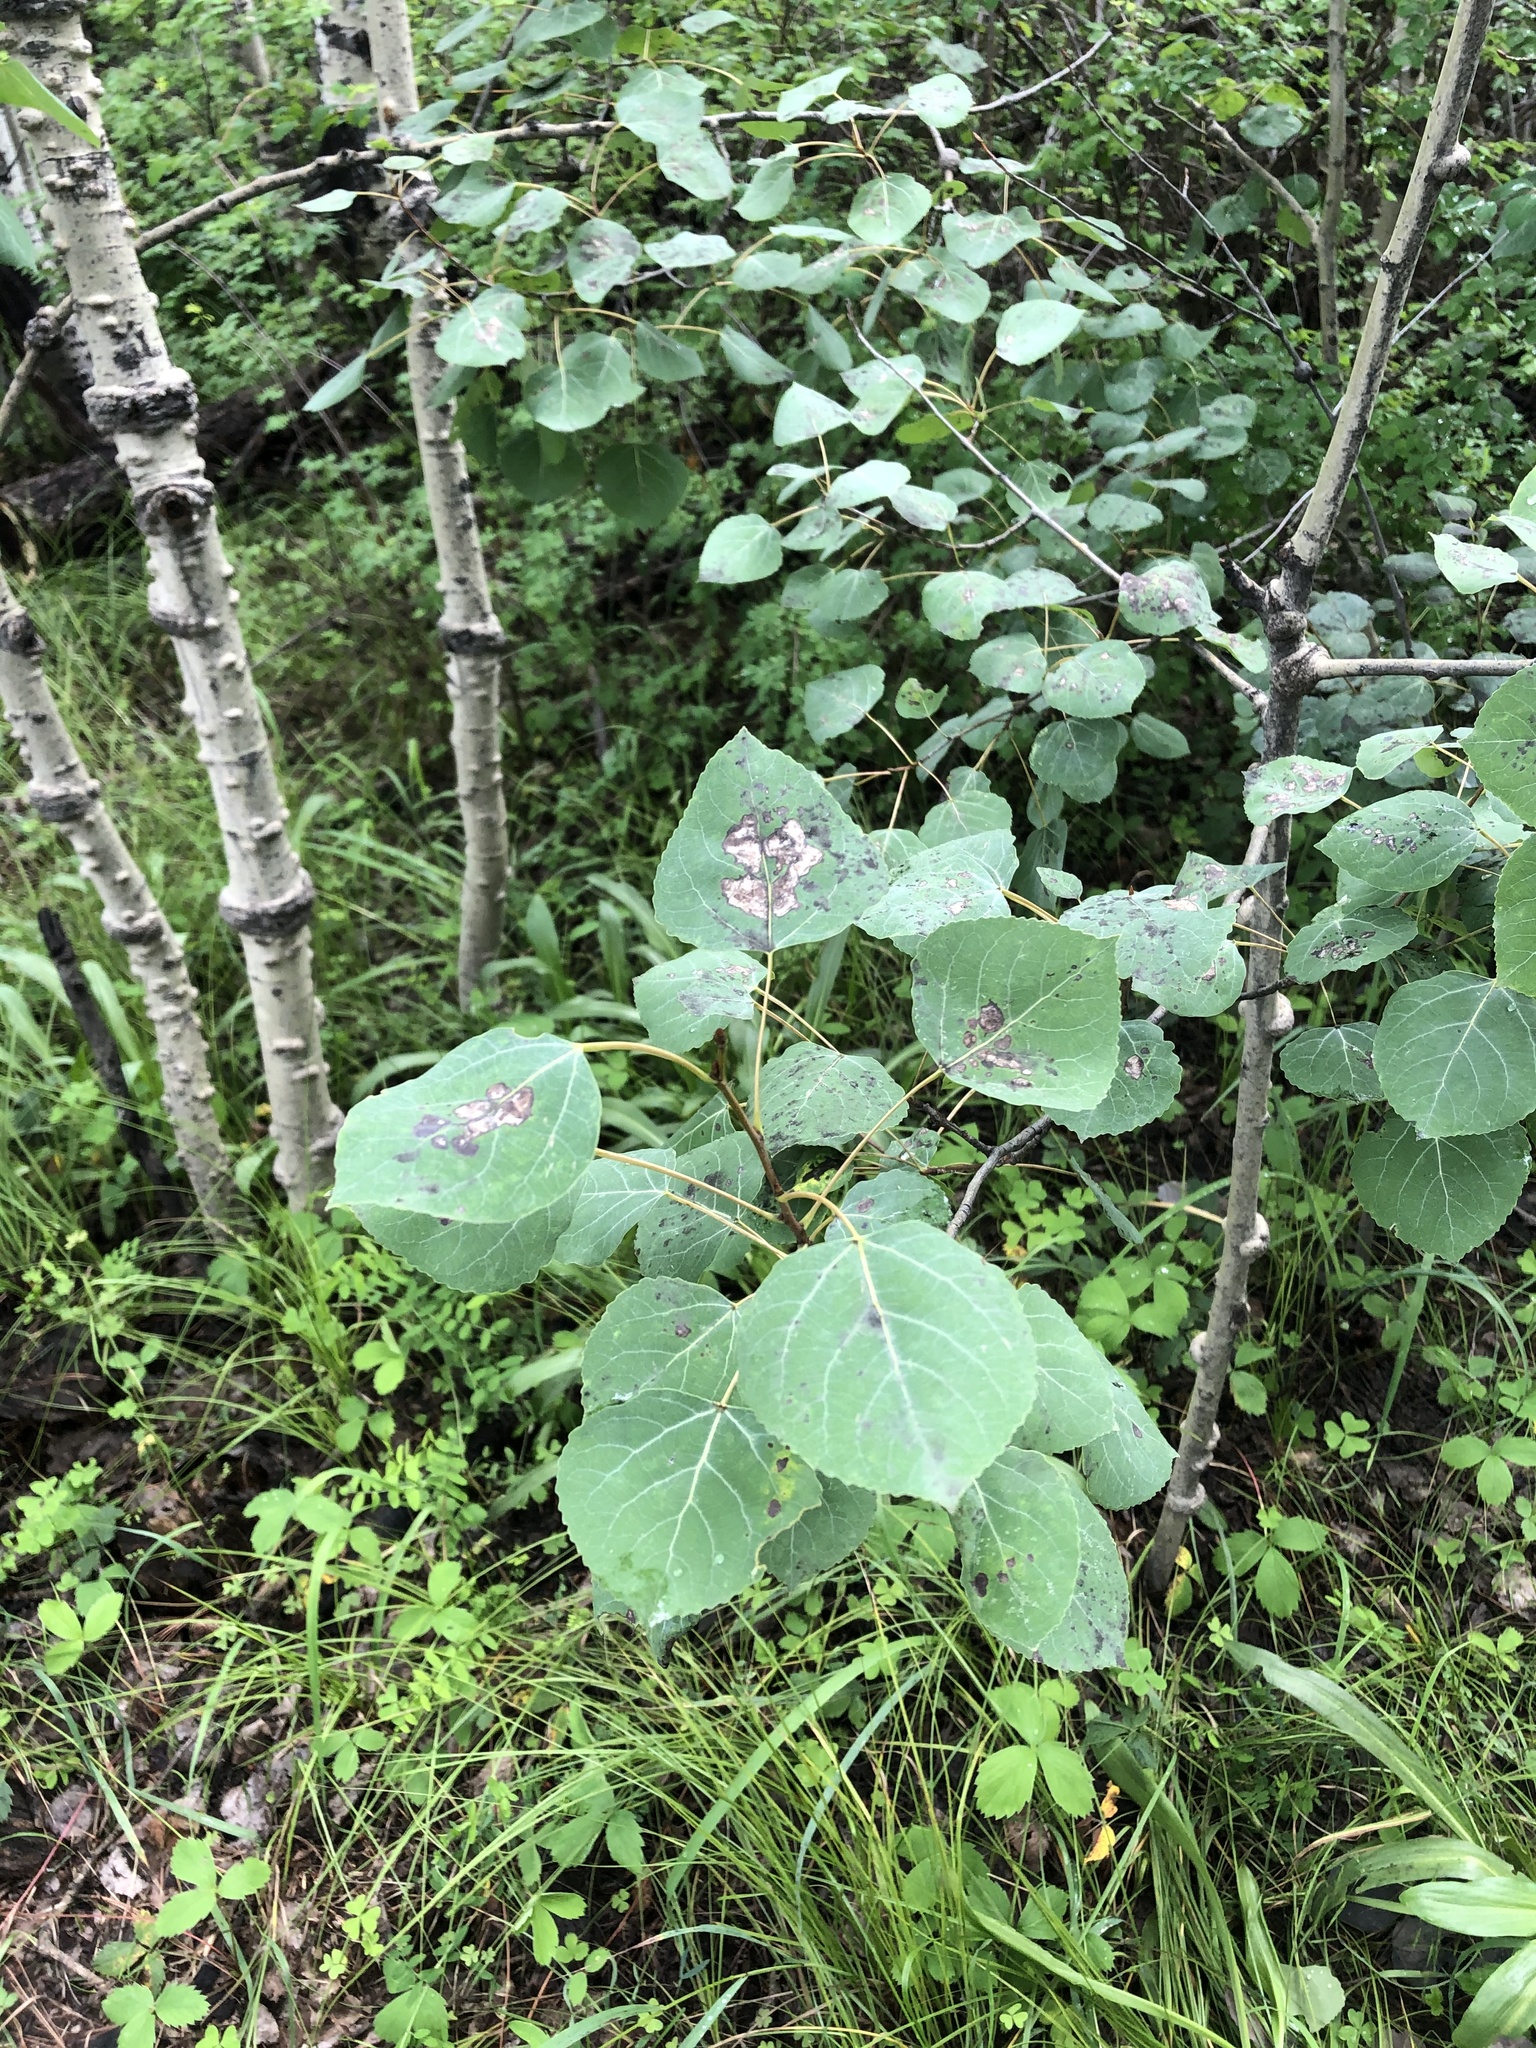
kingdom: Plantae
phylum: Tracheophyta
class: Magnoliopsida
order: Malpighiales
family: Salicaceae
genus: Populus
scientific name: Populus tremuloides
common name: Quaking aspen
